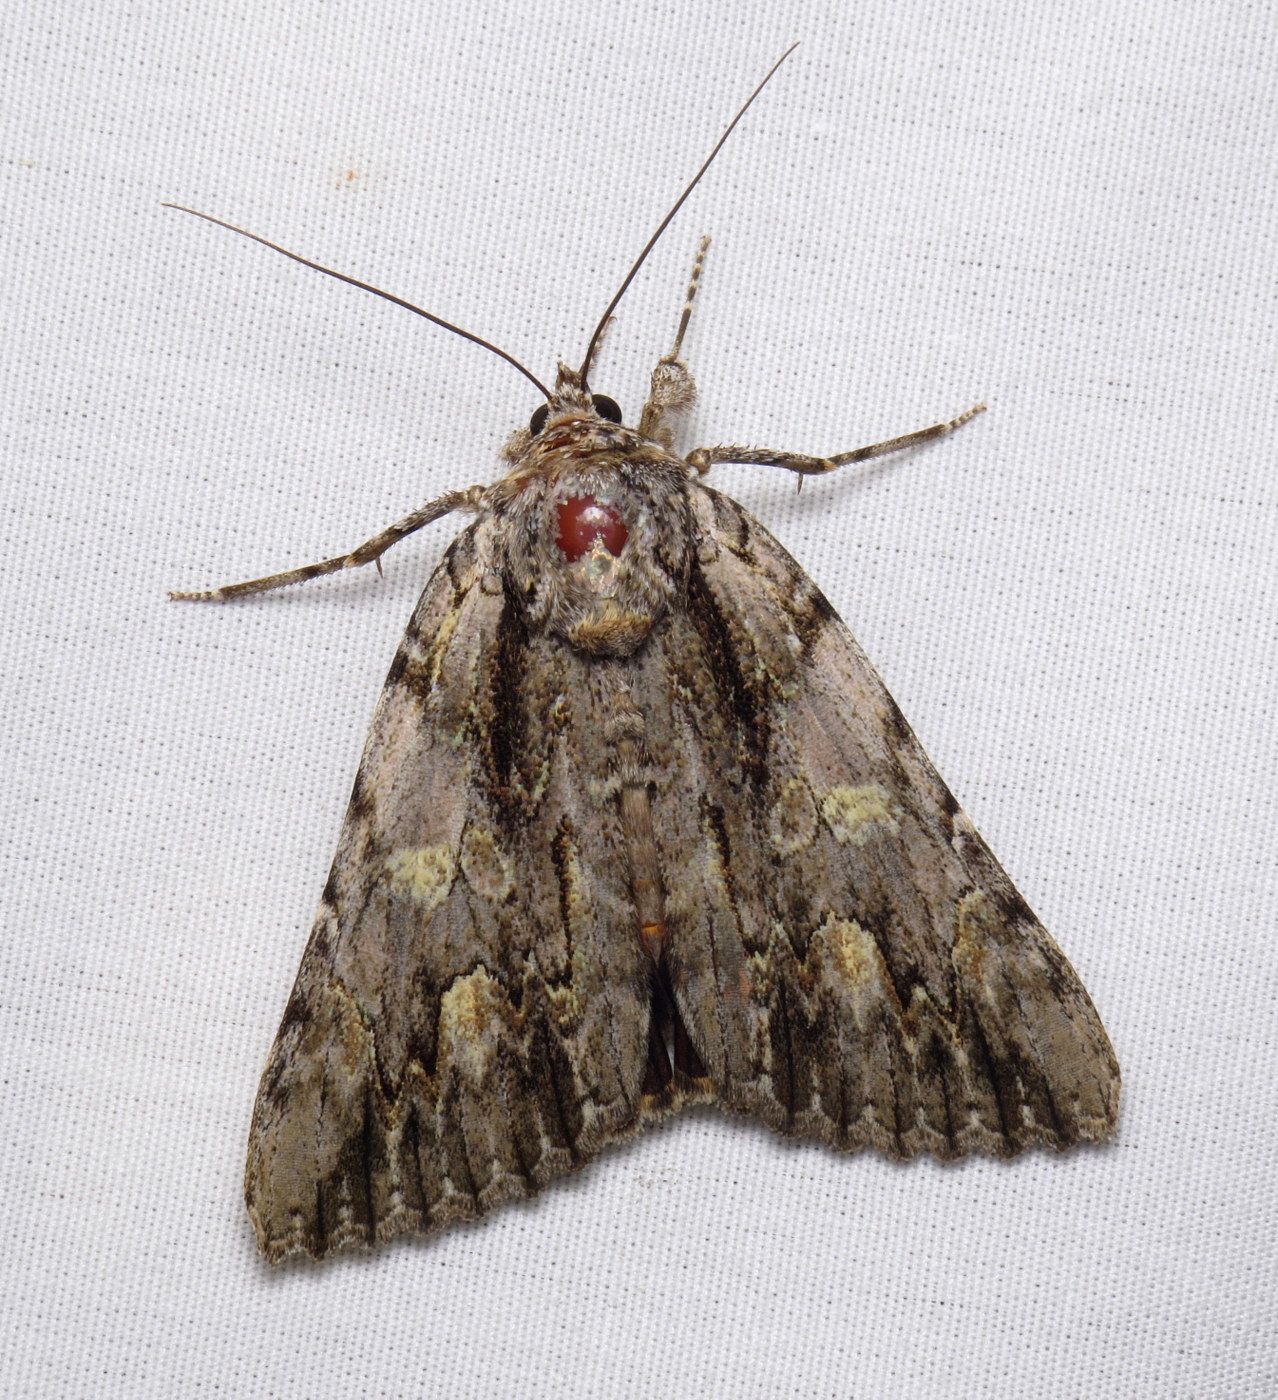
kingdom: Animalia
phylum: Arthropoda
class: Insecta
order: Lepidoptera
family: Erebidae
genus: Catocala
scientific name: Catocala coccinata
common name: Scarlet underwing
